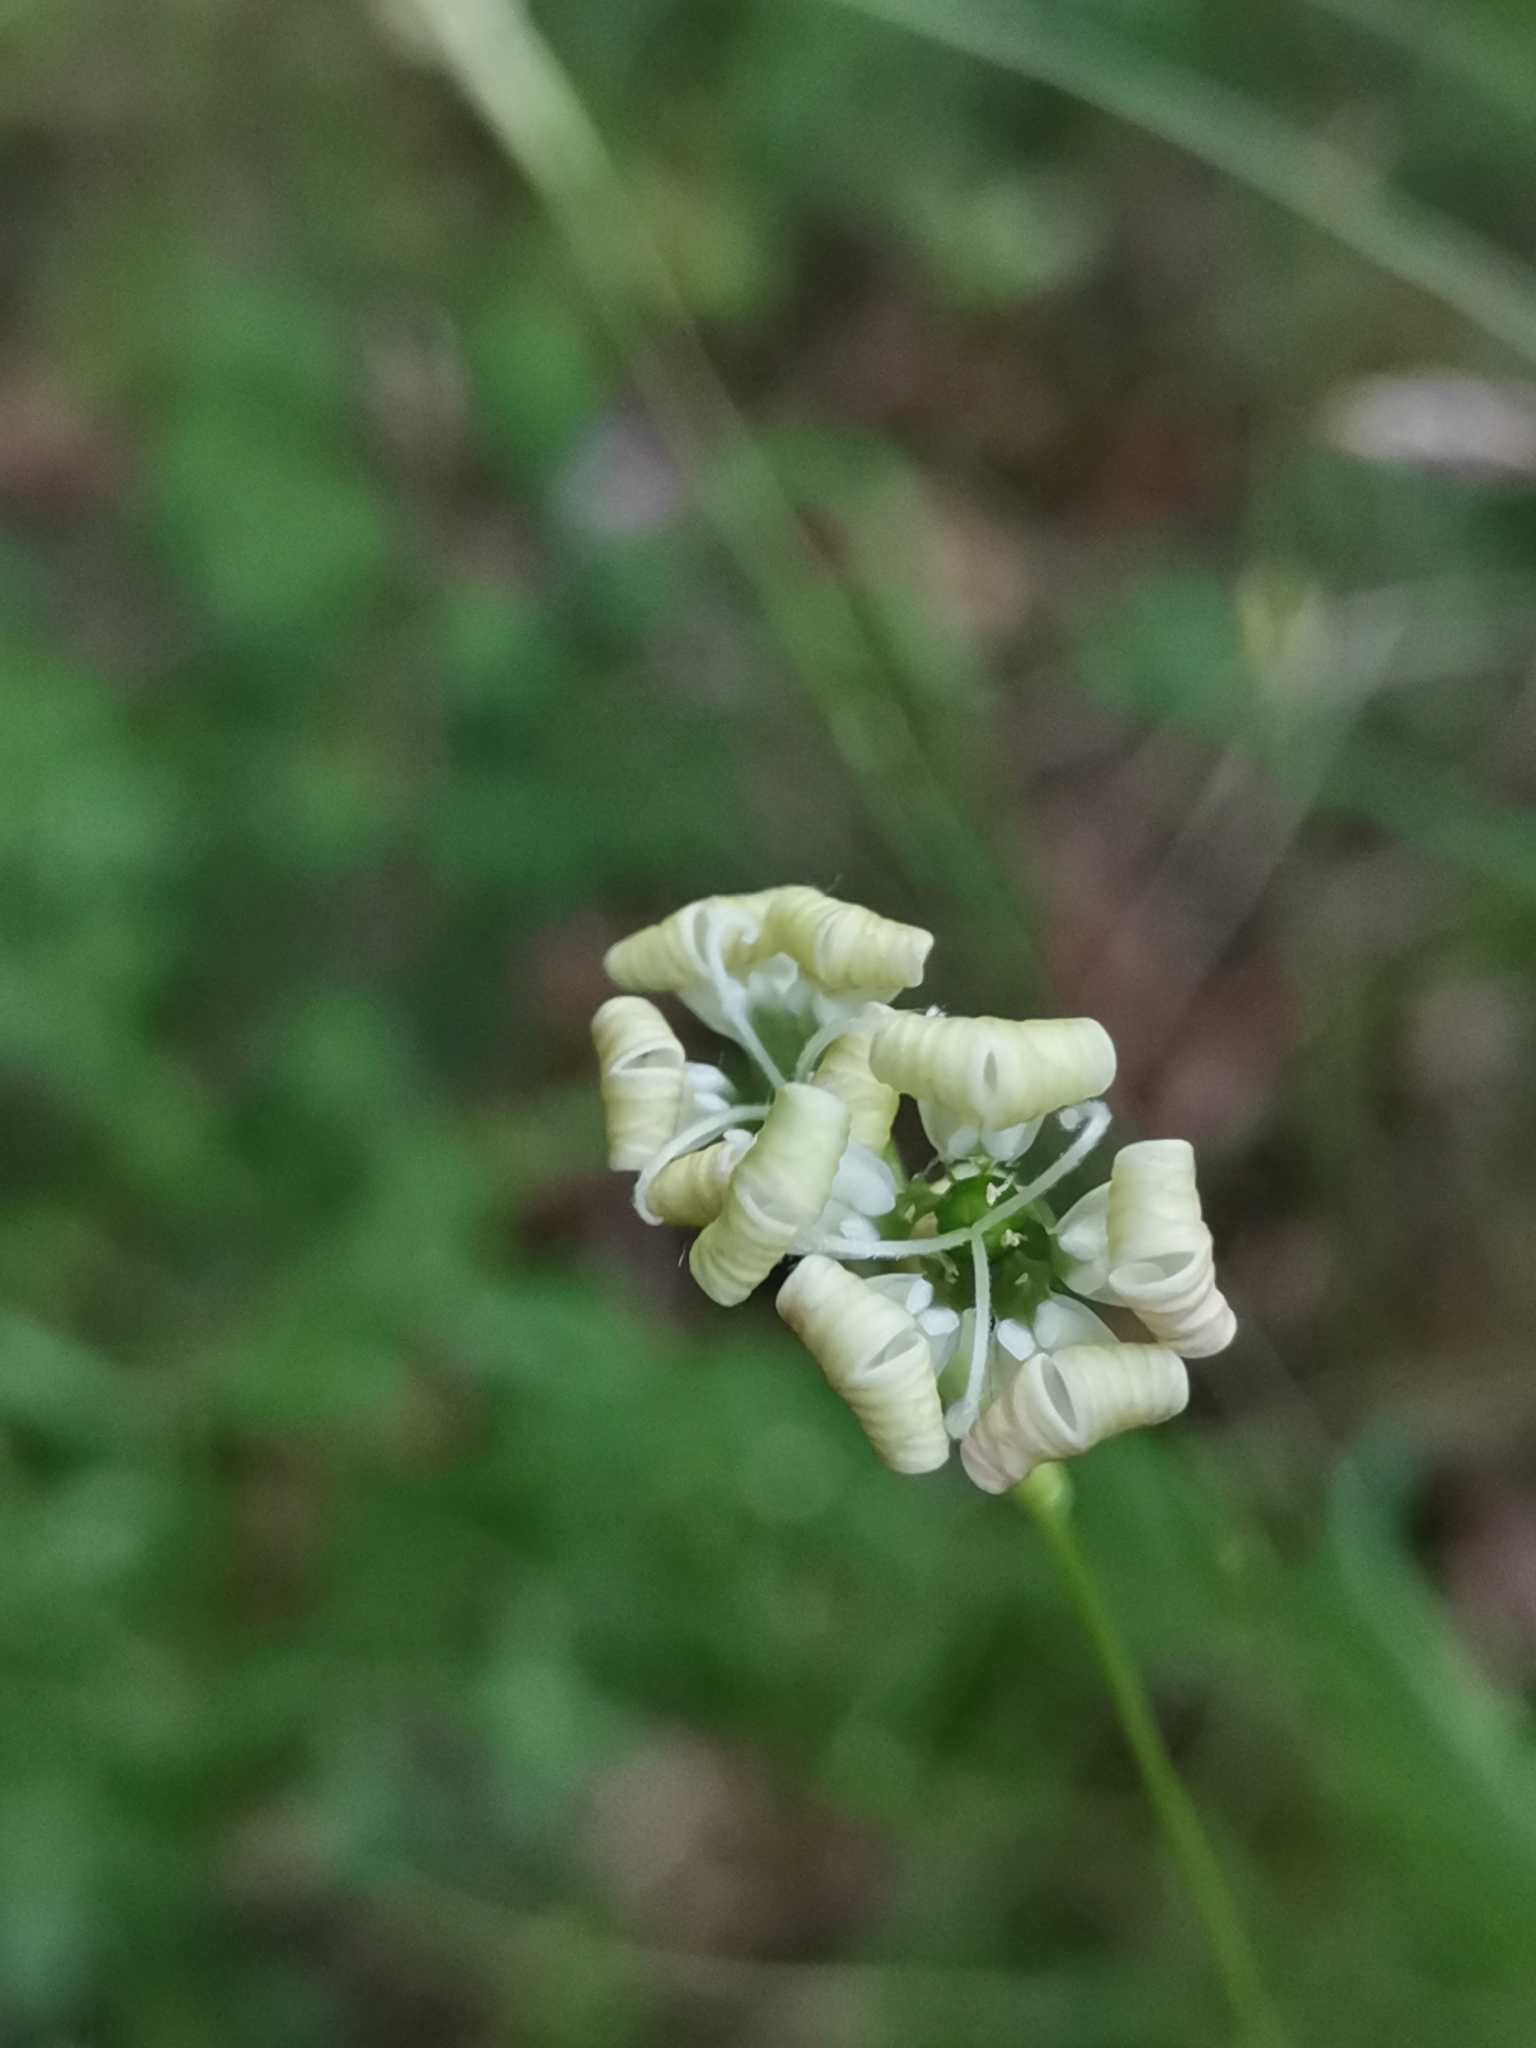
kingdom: Plantae
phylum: Tracheophyta
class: Magnoliopsida
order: Caryophyllales
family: Caryophyllaceae
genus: Silene
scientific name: Silene hayekiana
